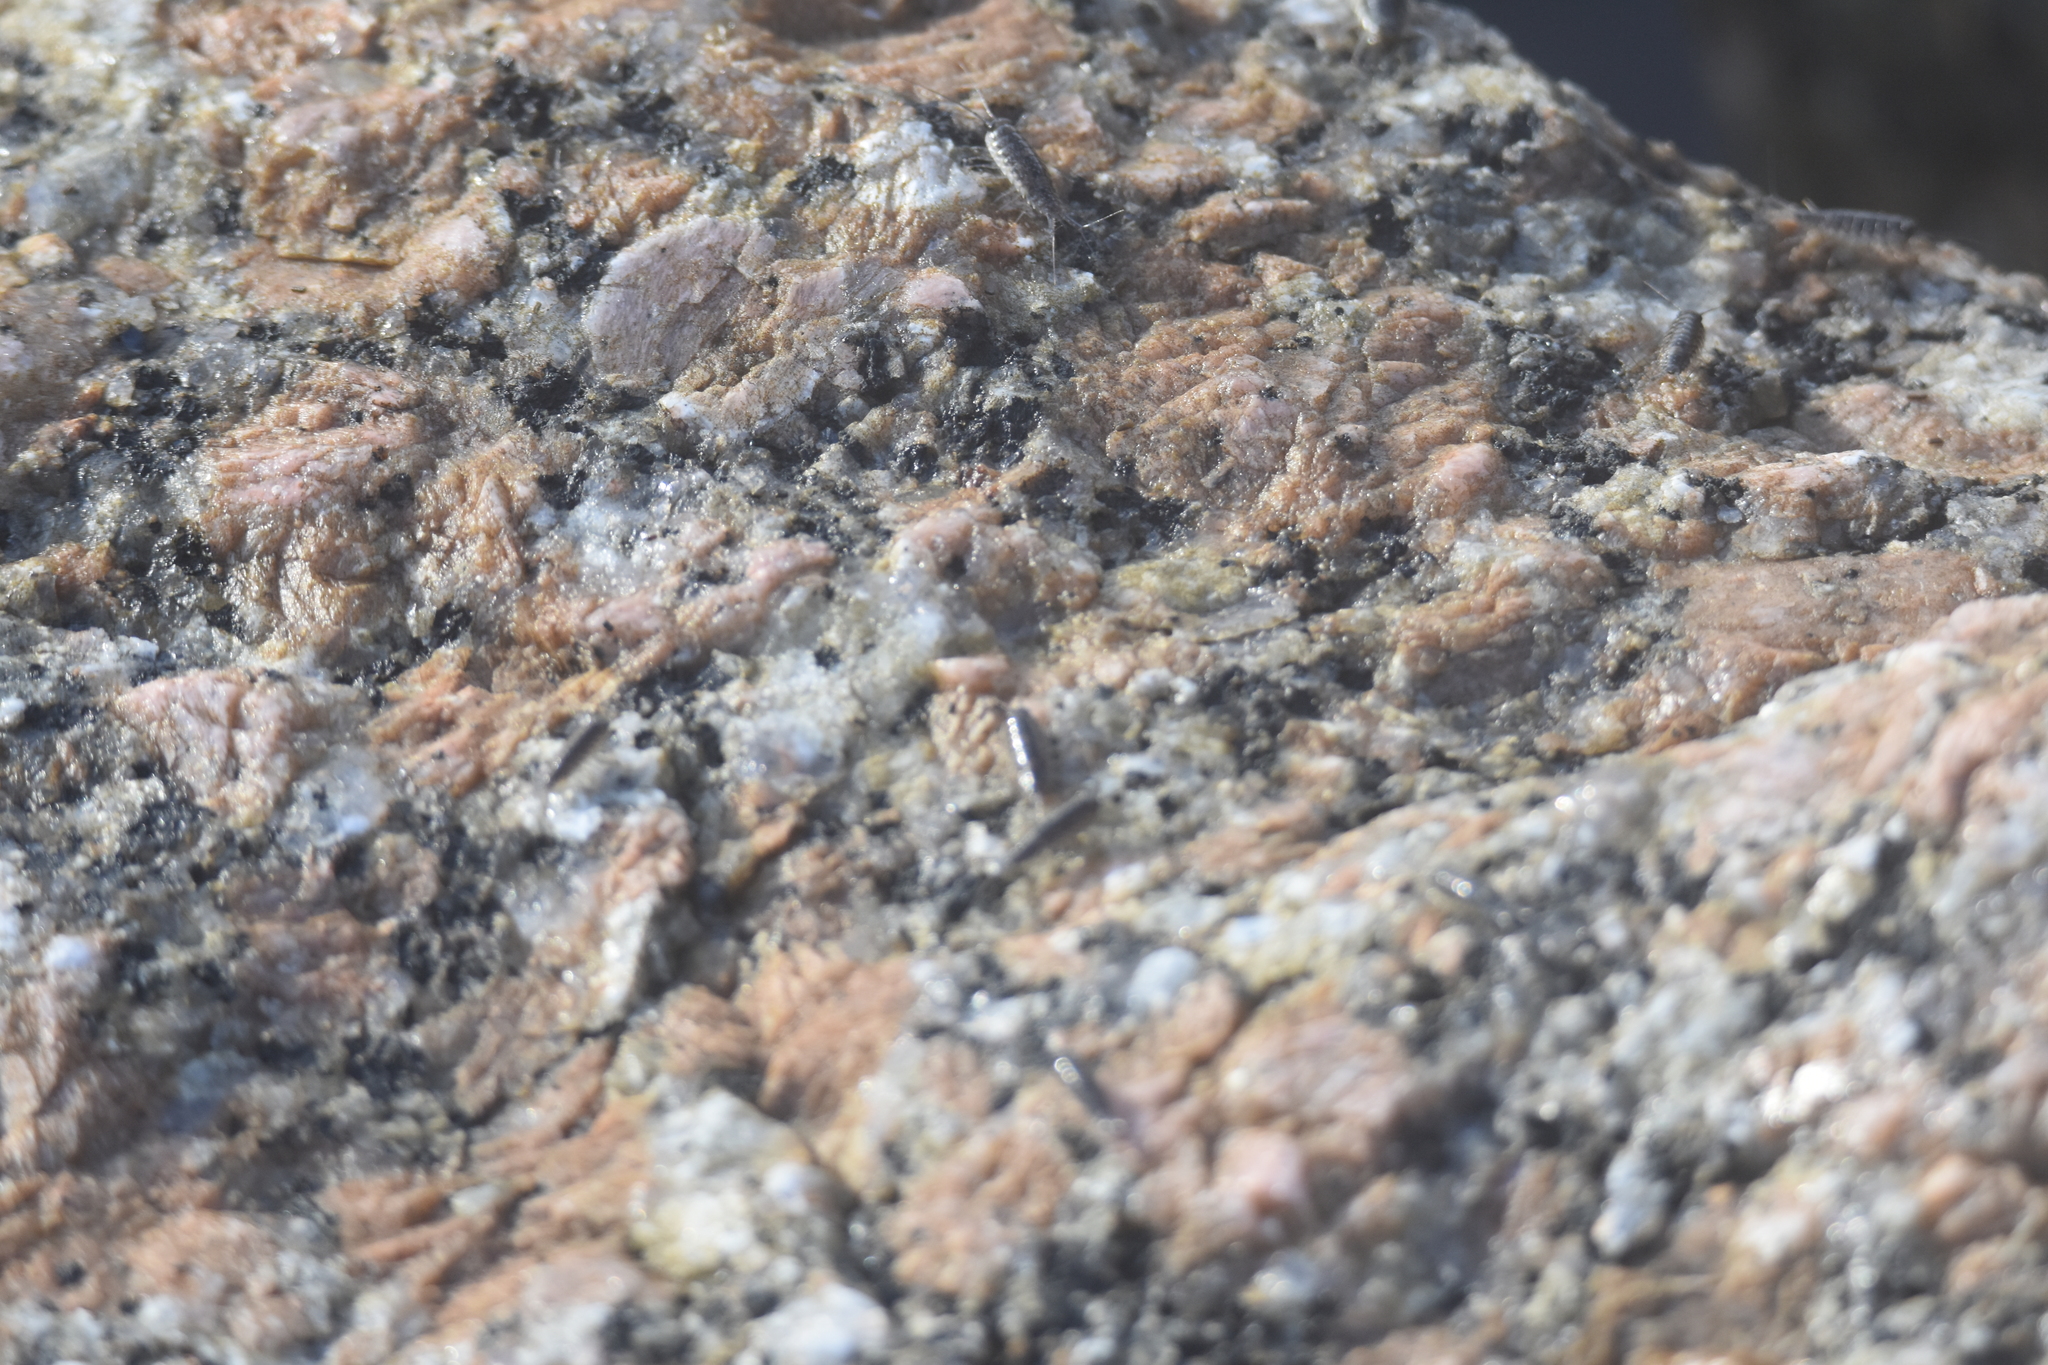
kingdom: Animalia
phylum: Arthropoda
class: Malacostraca
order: Isopoda
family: Ligiidae
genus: Ligia
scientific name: Ligia exotica
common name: Wharf roach
